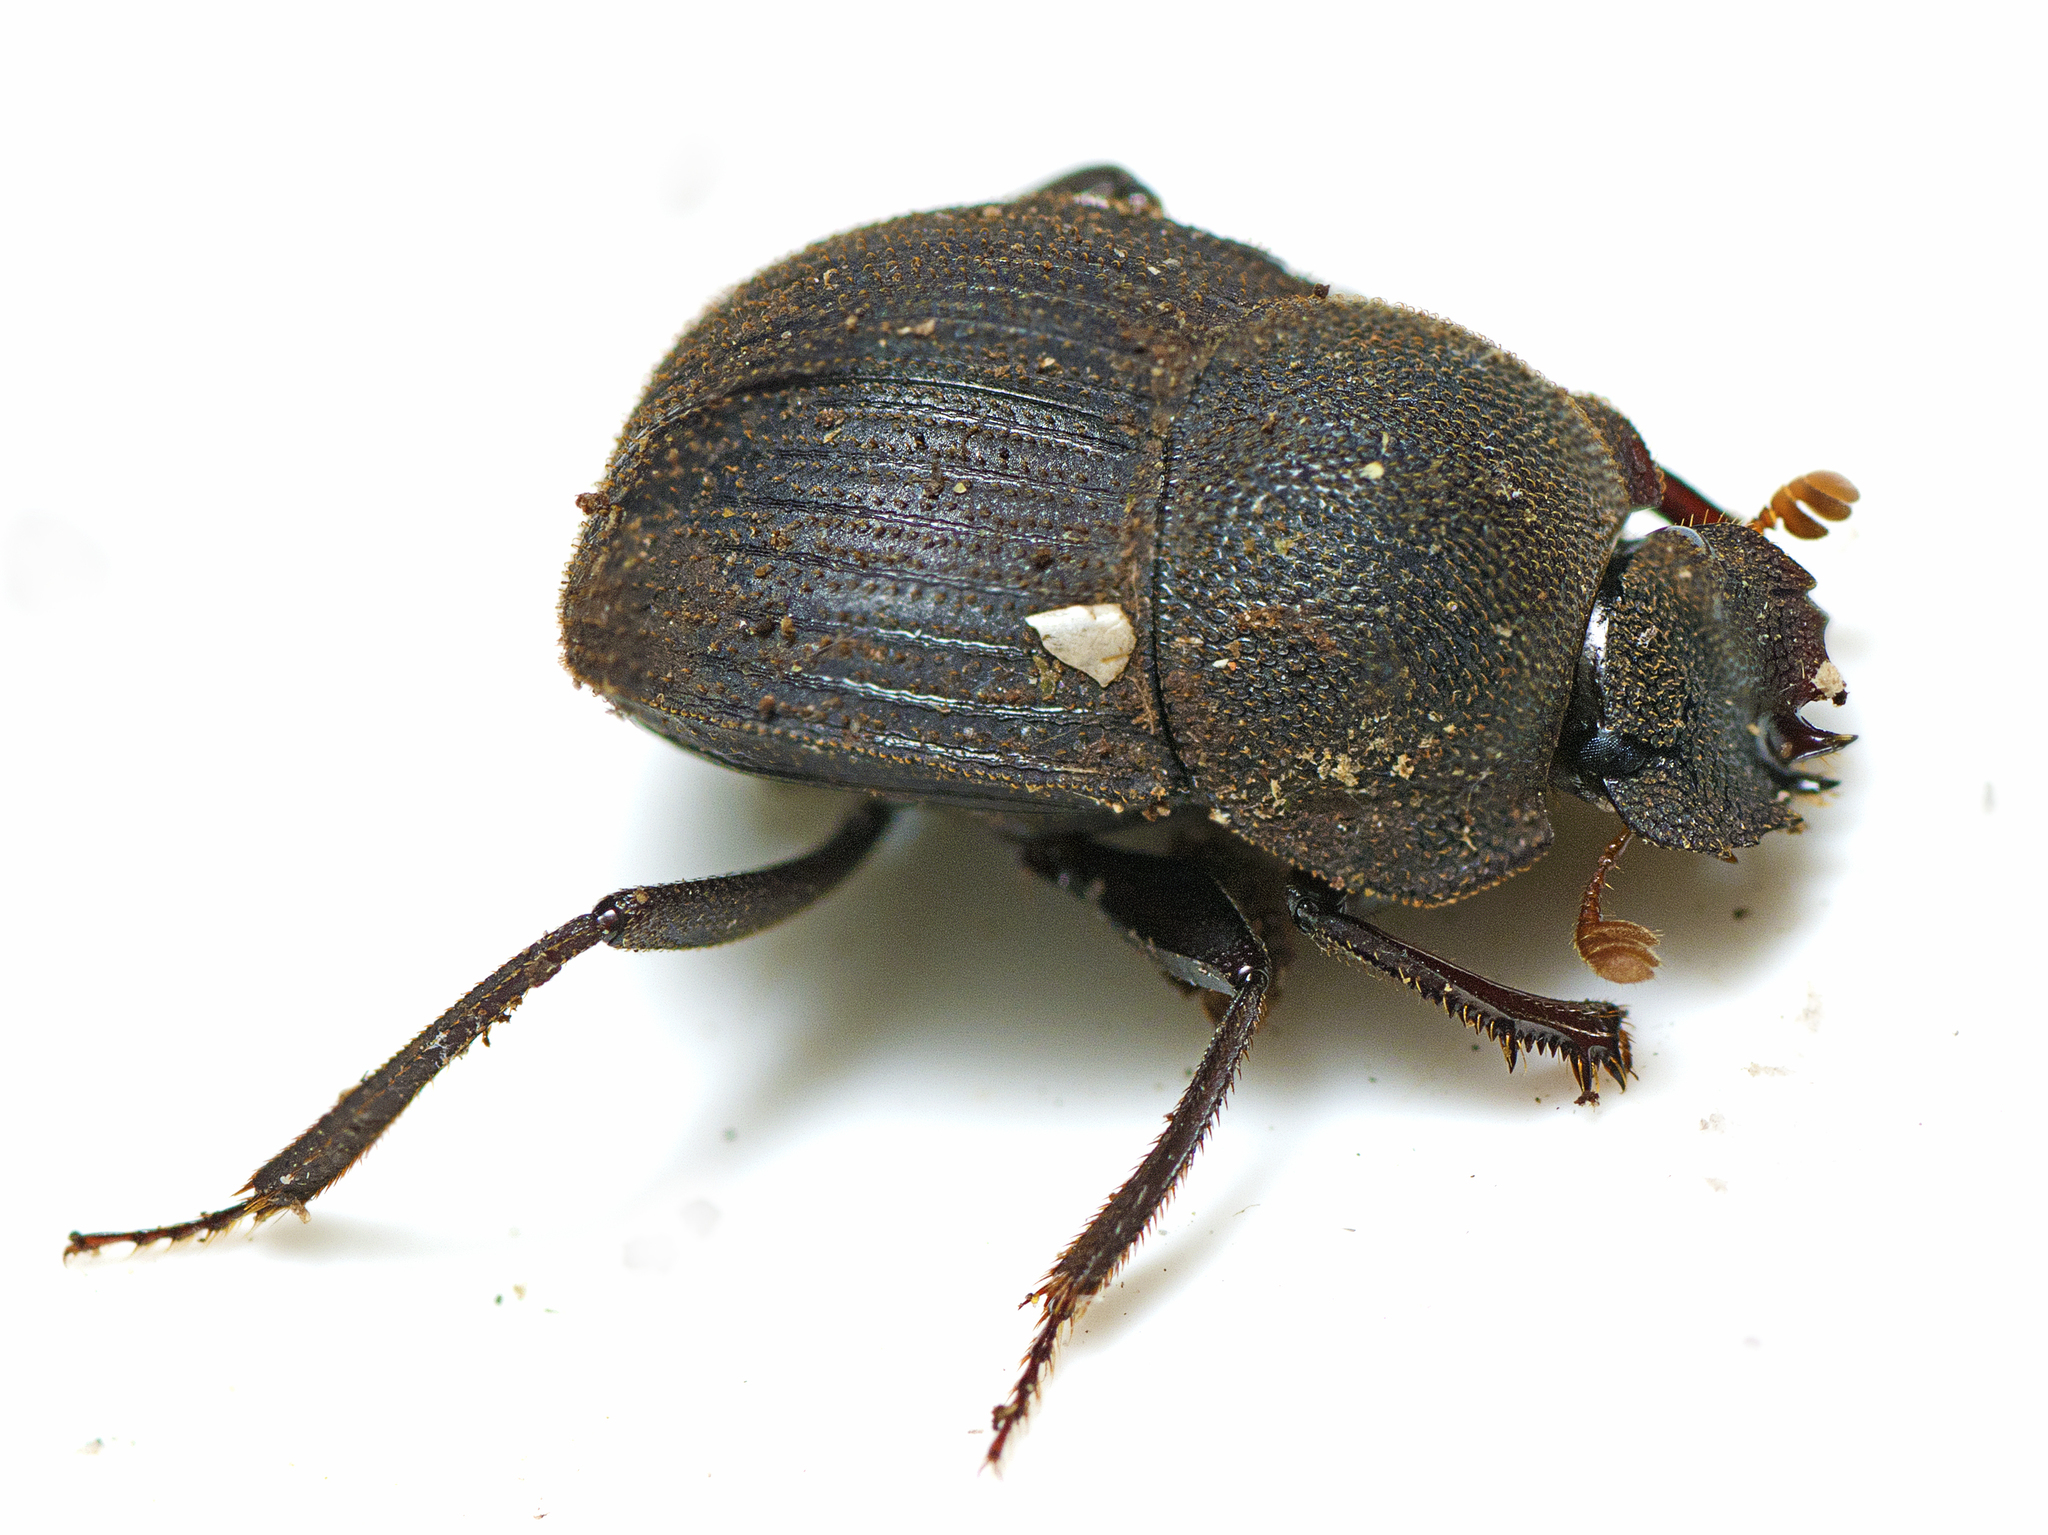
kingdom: Animalia
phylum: Arthropoda
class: Insecta
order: Coleoptera
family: Scarabaeidae
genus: Cephalodesmius
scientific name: Cephalodesmius quadridens
